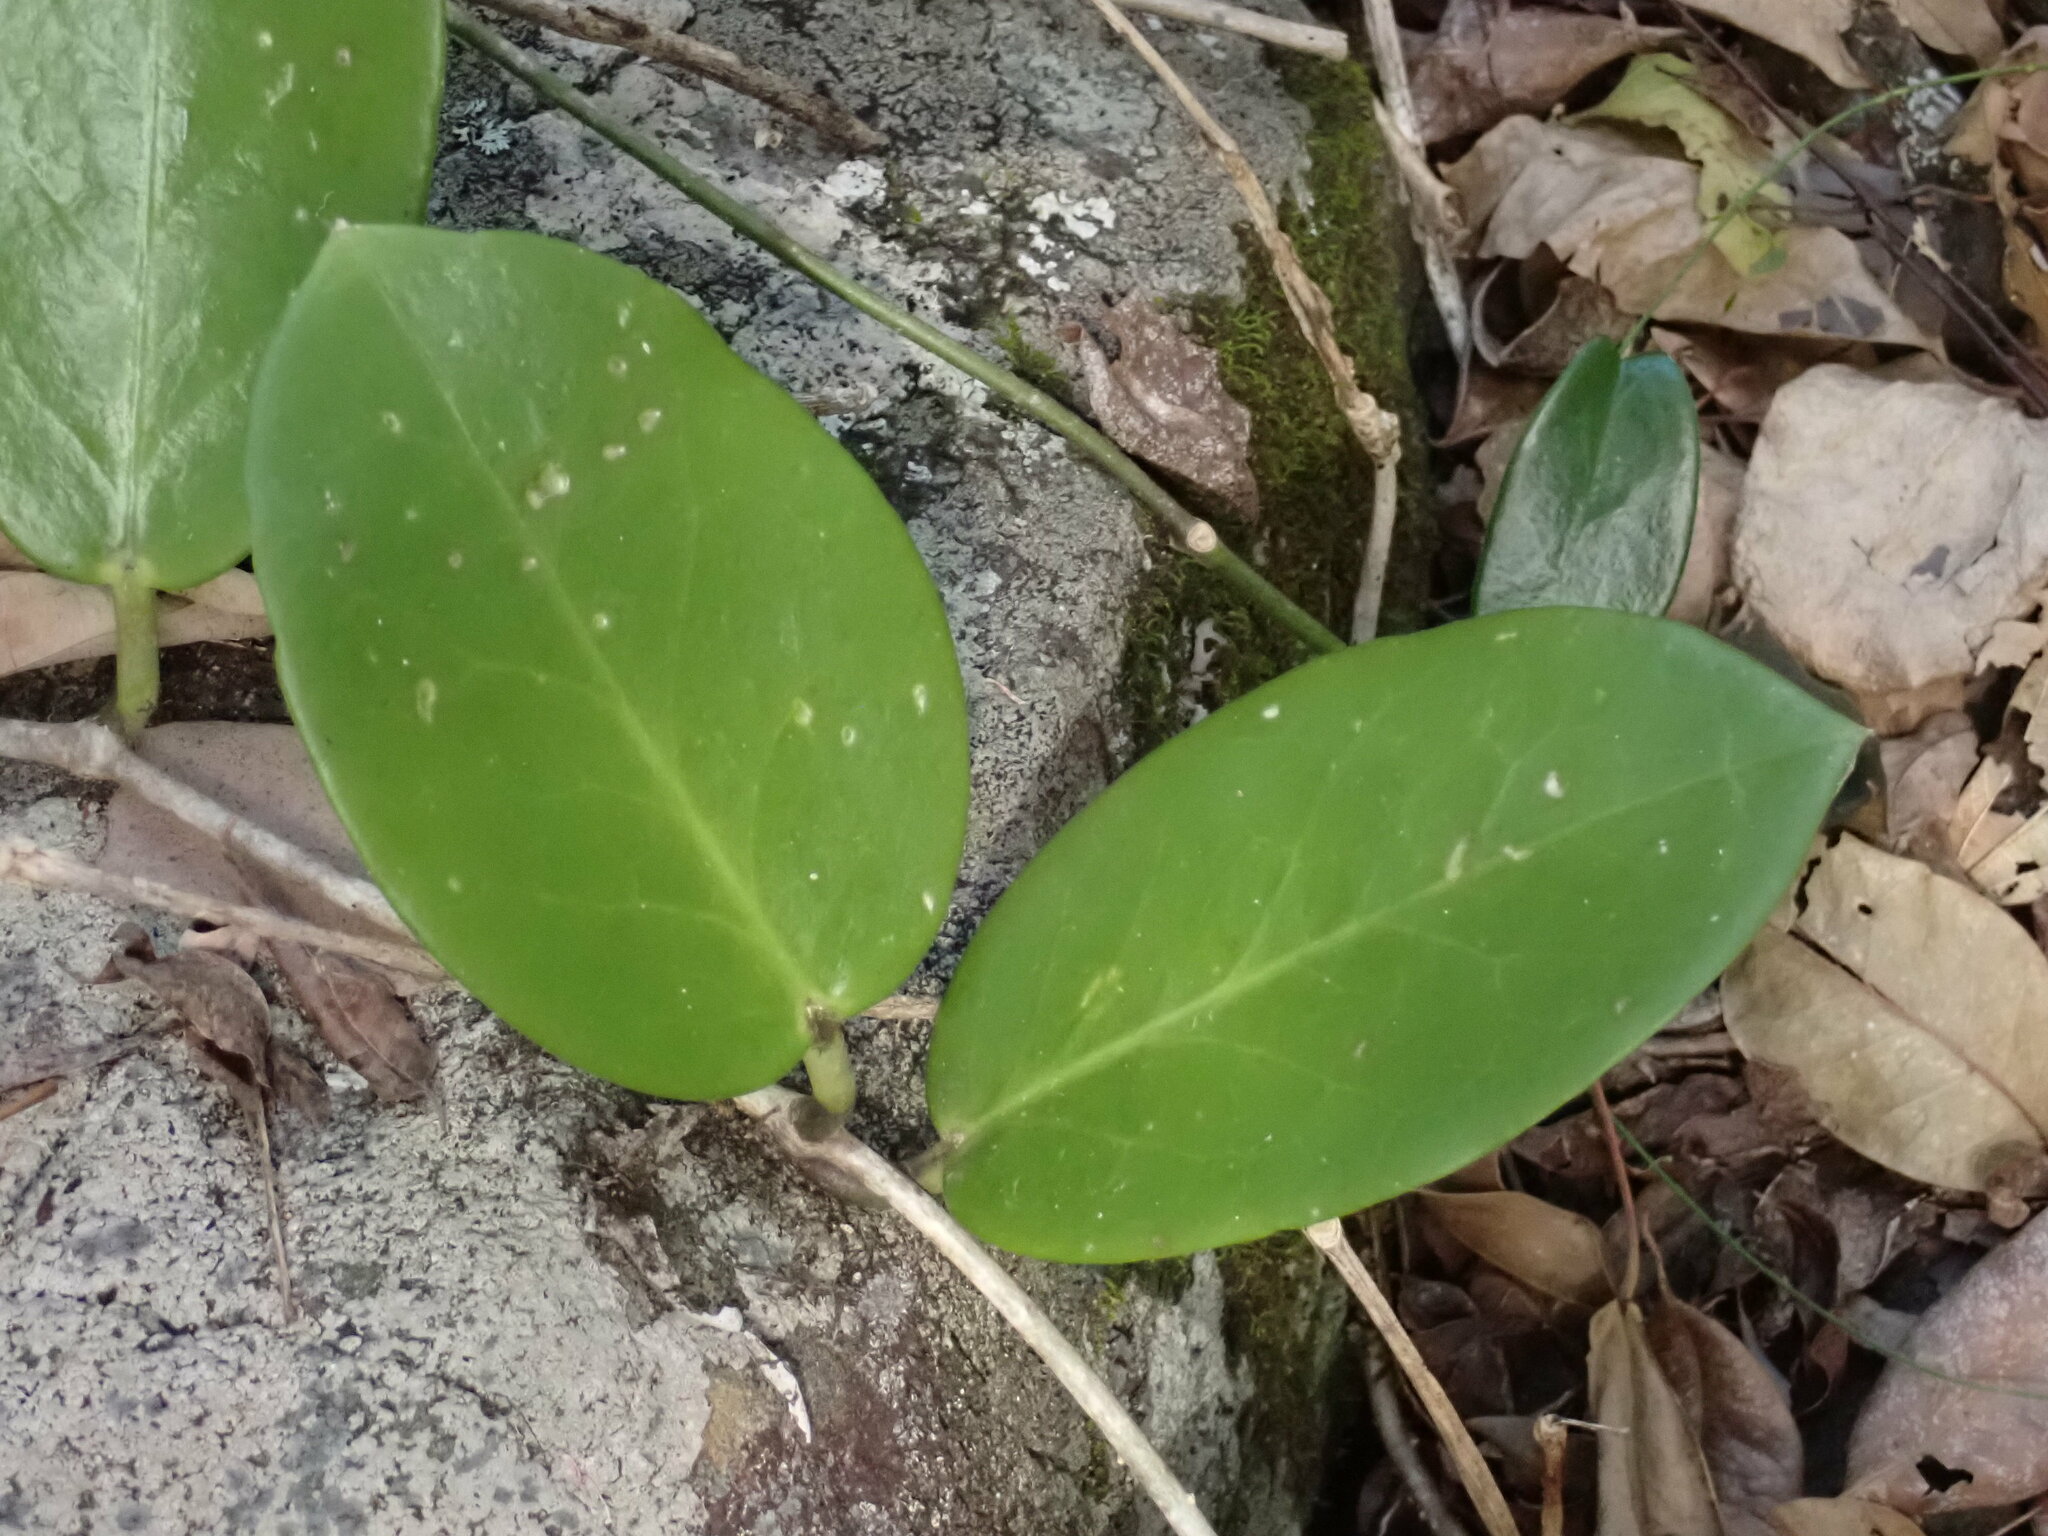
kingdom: Plantae
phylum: Tracheophyta
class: Magnoliopsida
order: Gentianales
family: Apocynaceae
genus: Hoya
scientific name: Hoya australis
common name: Wax flower
